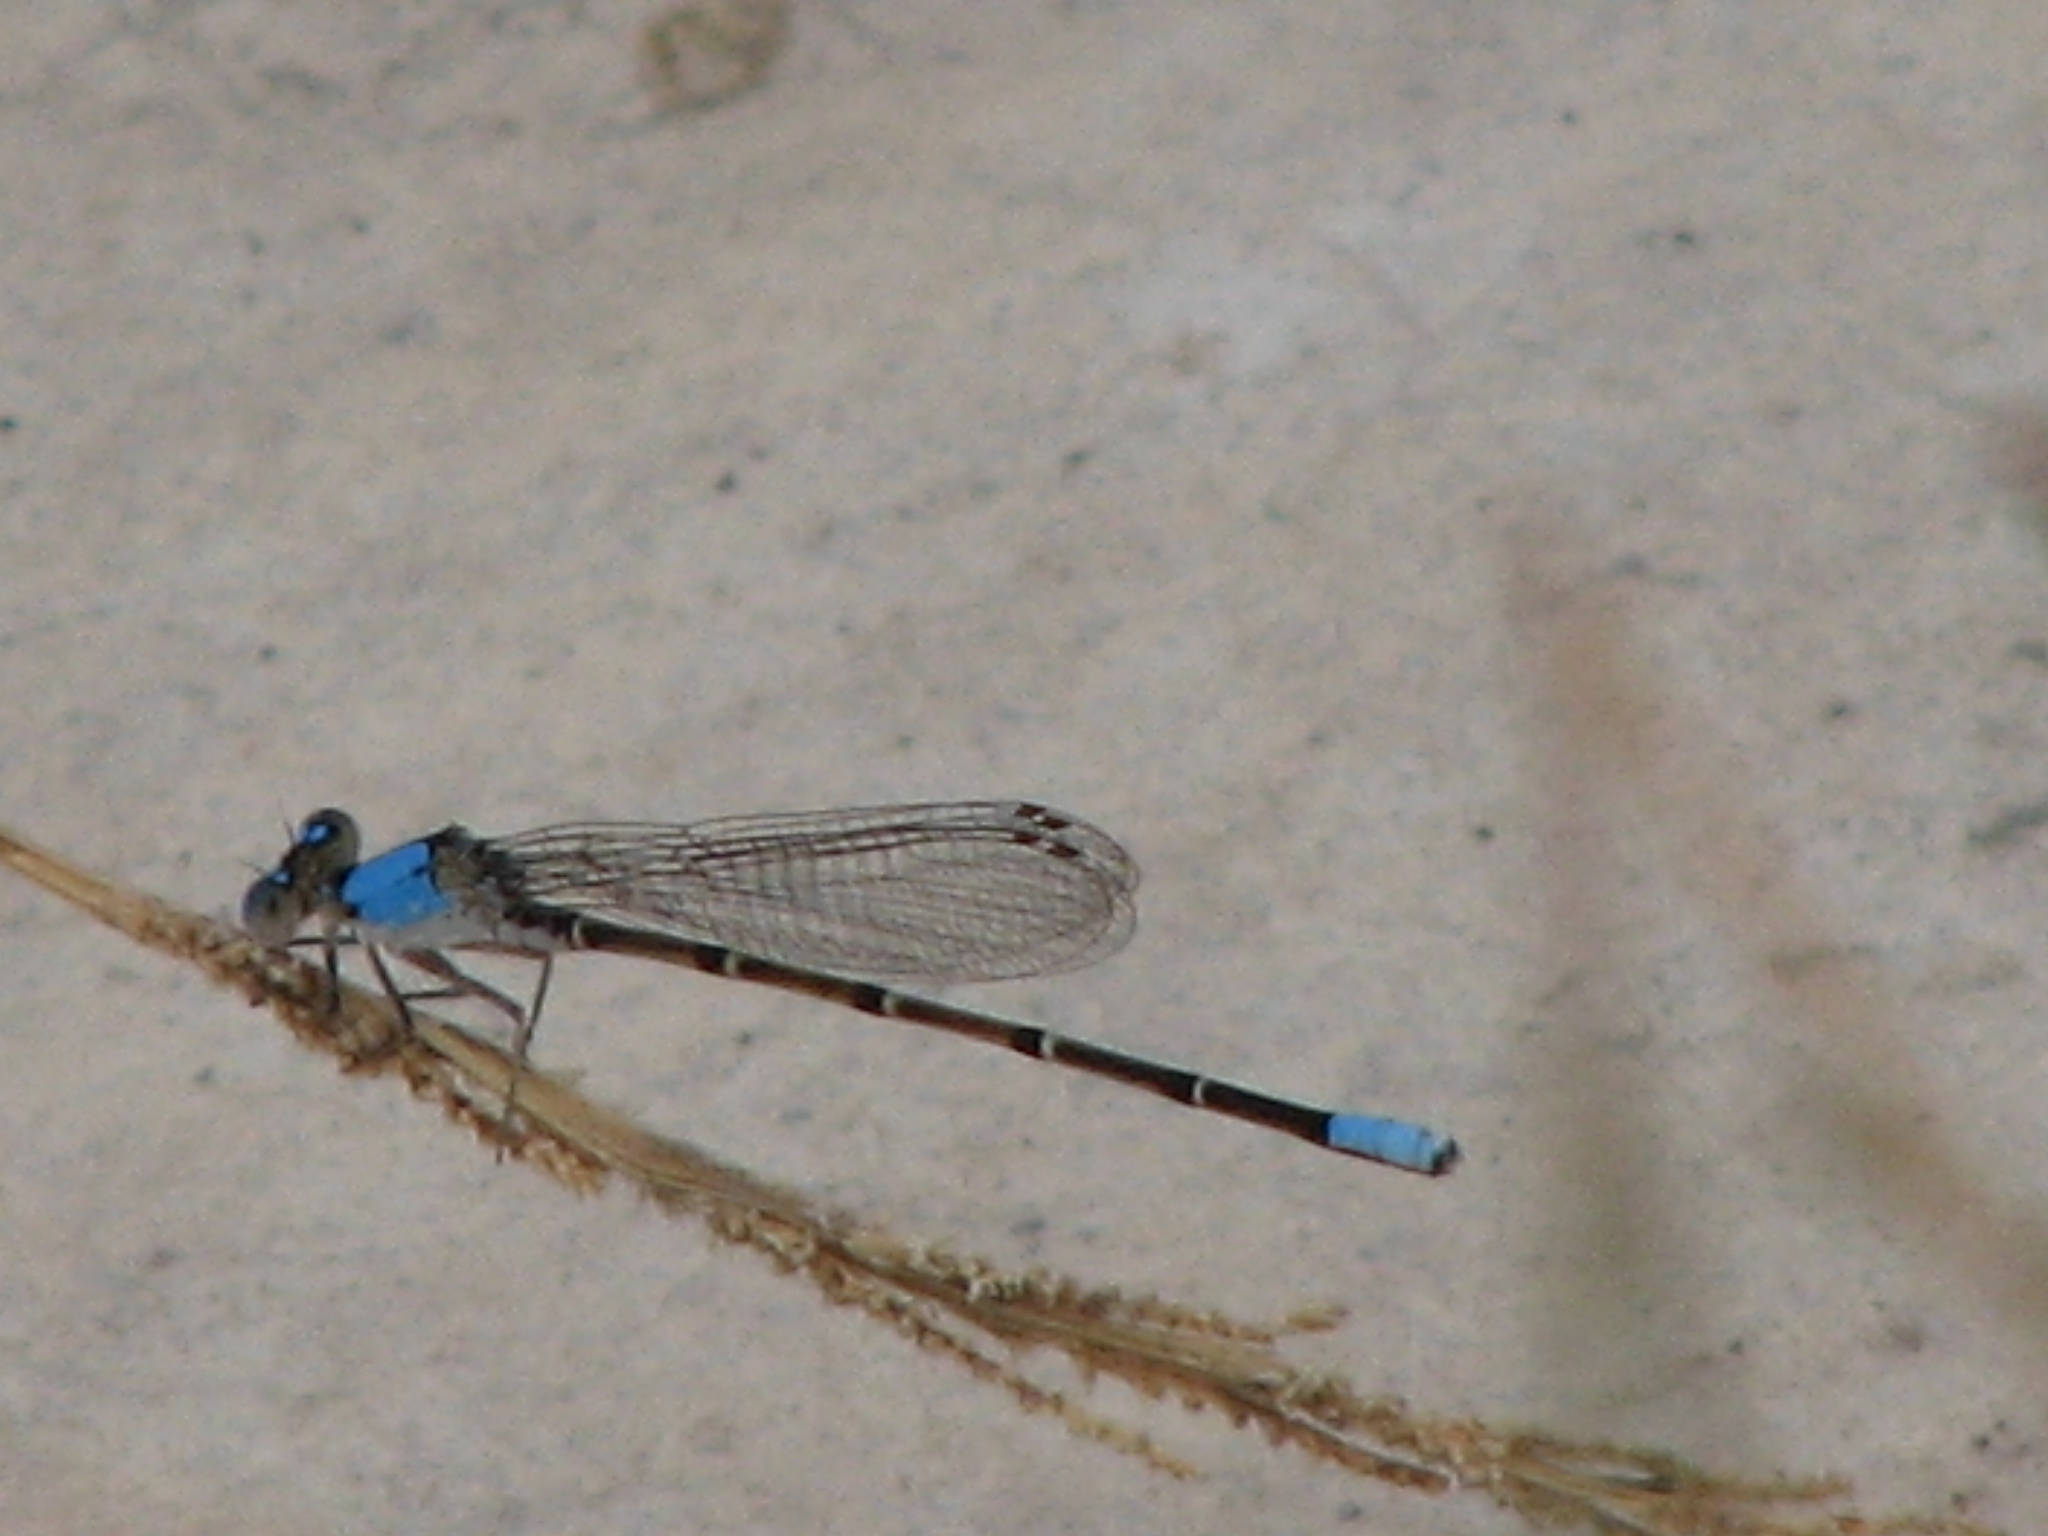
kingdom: Animalia
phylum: Arthropoda
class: Insecta
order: Odonata
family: Coenagrionidae
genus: Argia
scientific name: Argia apicalis
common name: Blue-fronted dancer
